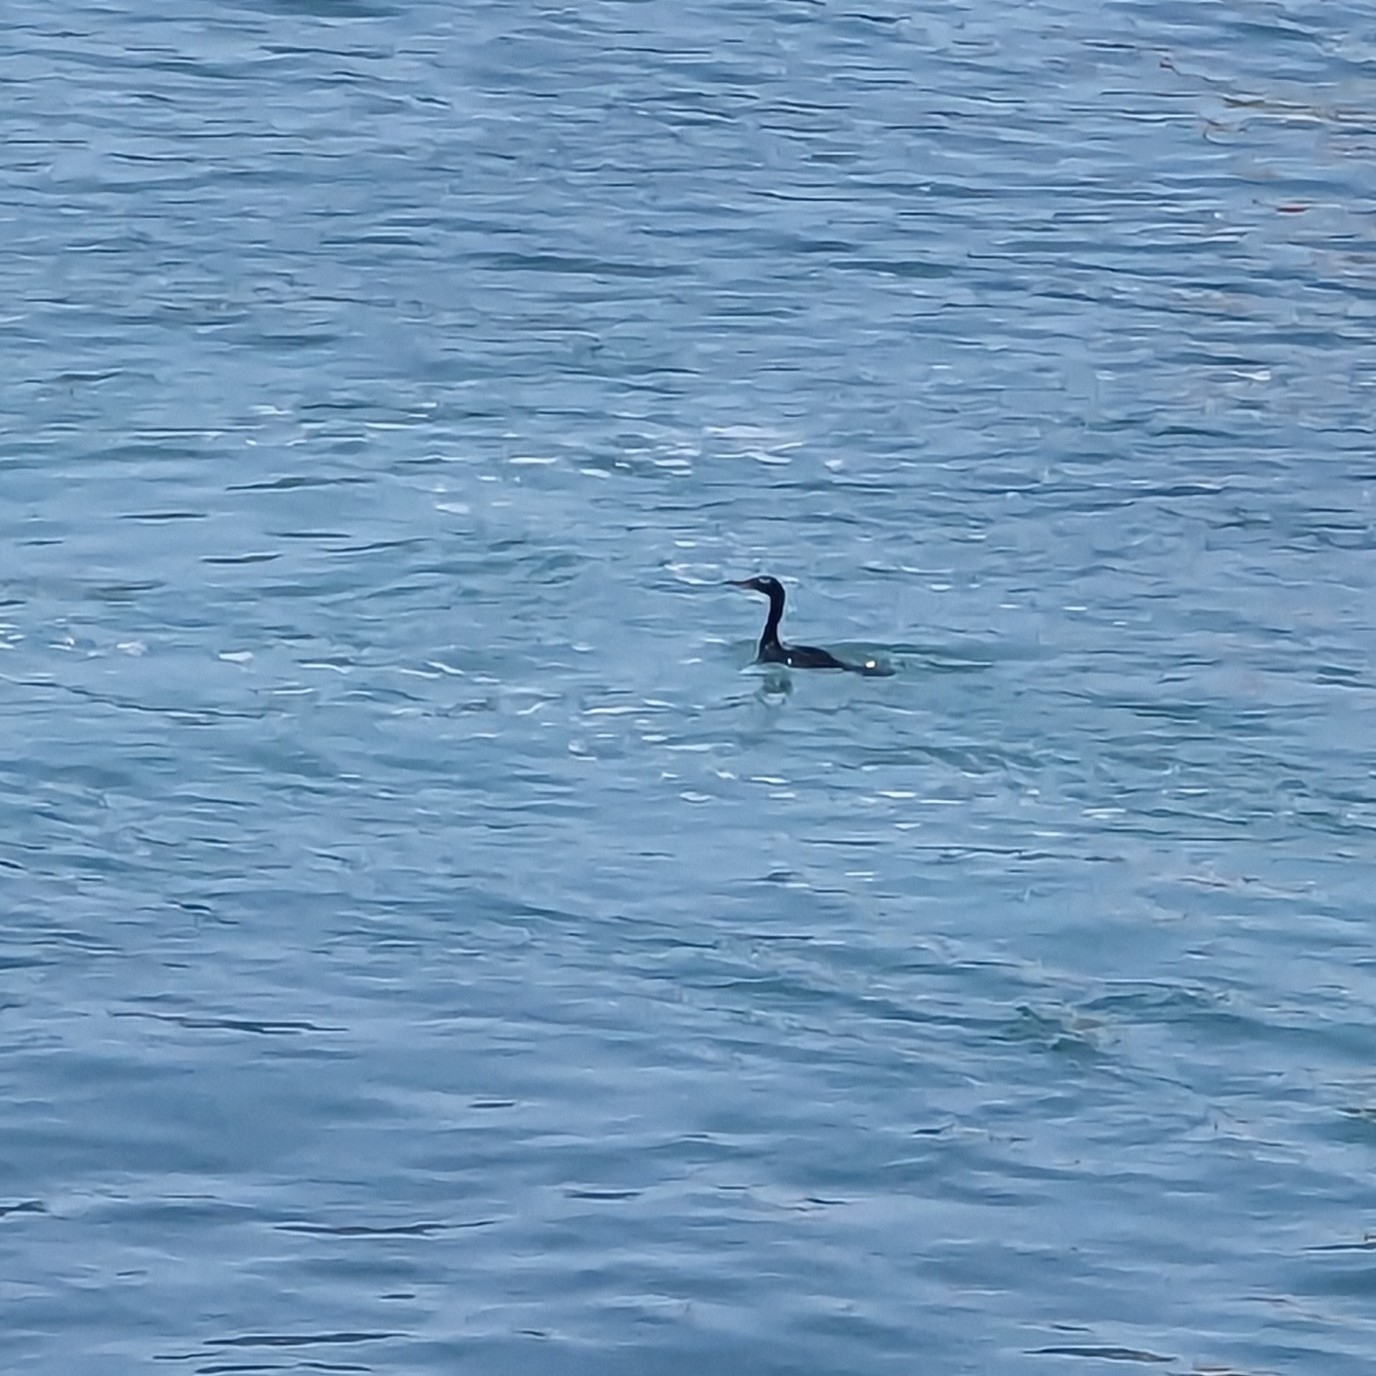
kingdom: Animalia
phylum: Chordata
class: Aves
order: Suliformes
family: Phalacrocoracidae
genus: Phalacrocorax
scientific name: Phalacrocorax pelagicus
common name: Pelagic cormorant
